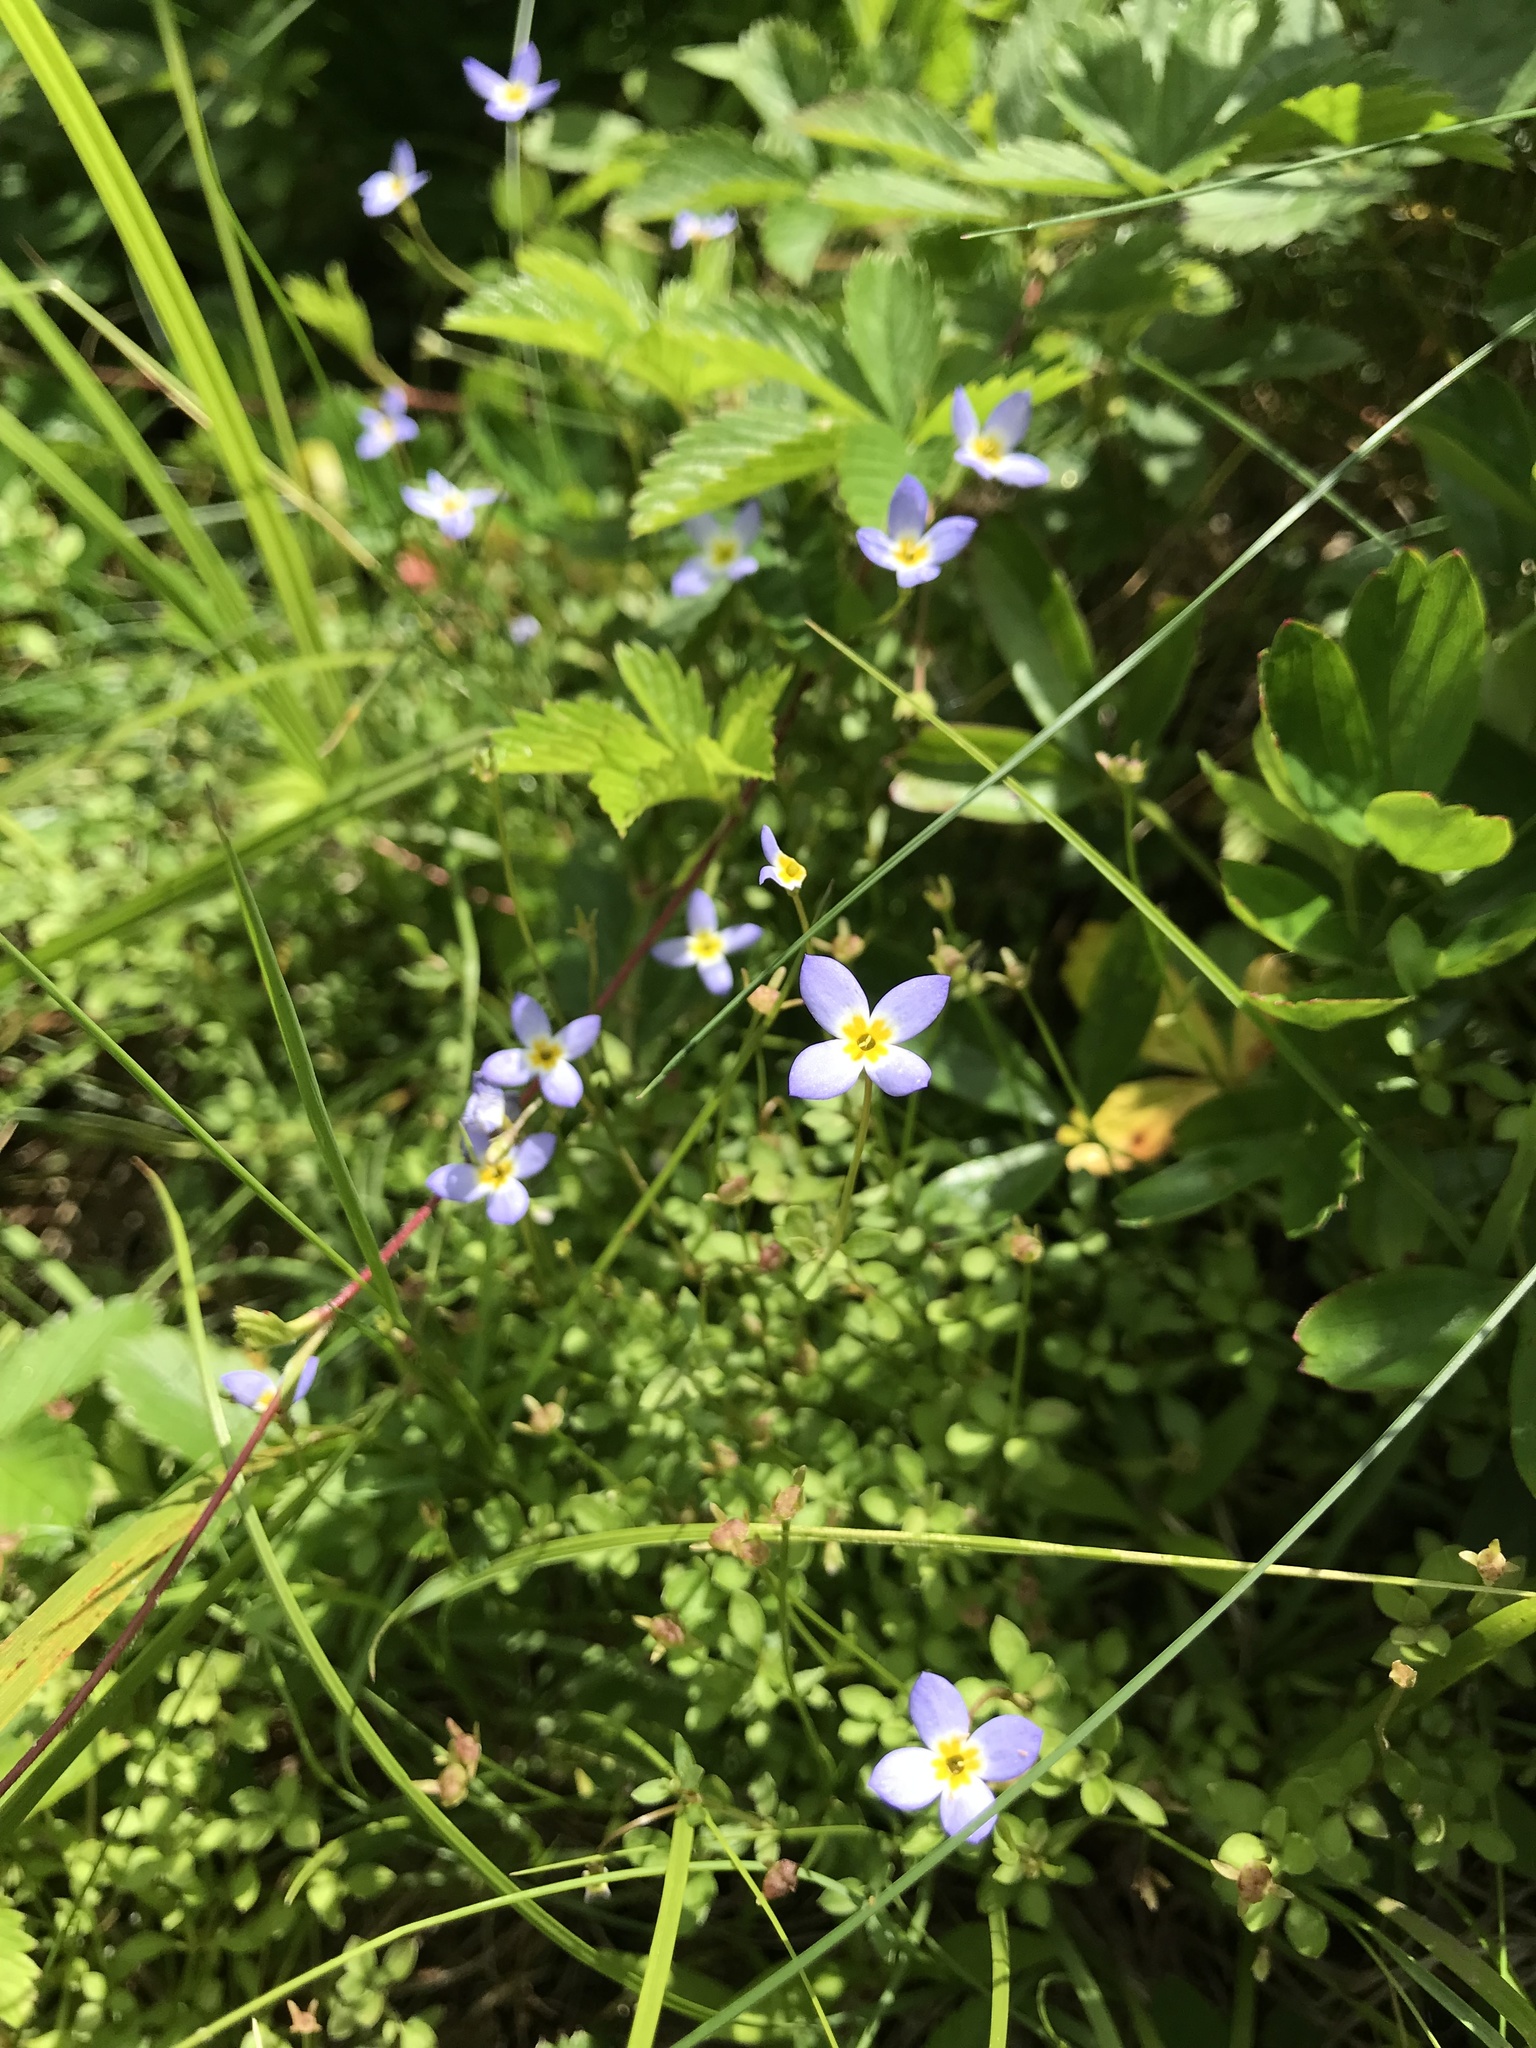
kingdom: Plantae
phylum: Tracheophyta
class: Magnoliopsida
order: Gentianales
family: Rubiaceae
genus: Houstonia
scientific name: Houstonia serpyllifolia
